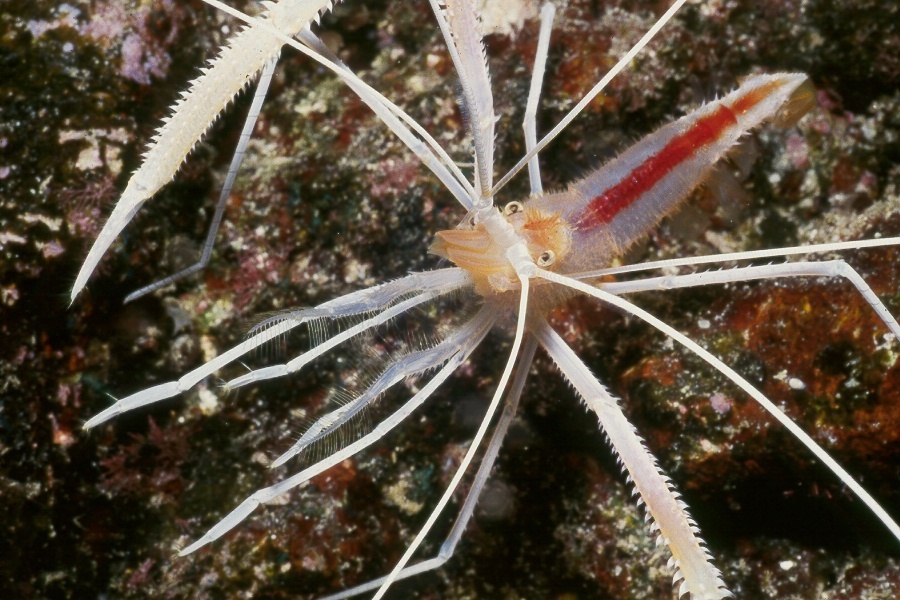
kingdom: Animalia
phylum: Arthropoda
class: Malacostraca
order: Decapoda
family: Stenopodidae
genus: Stenopus
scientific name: Stenopus pyrsonotus
